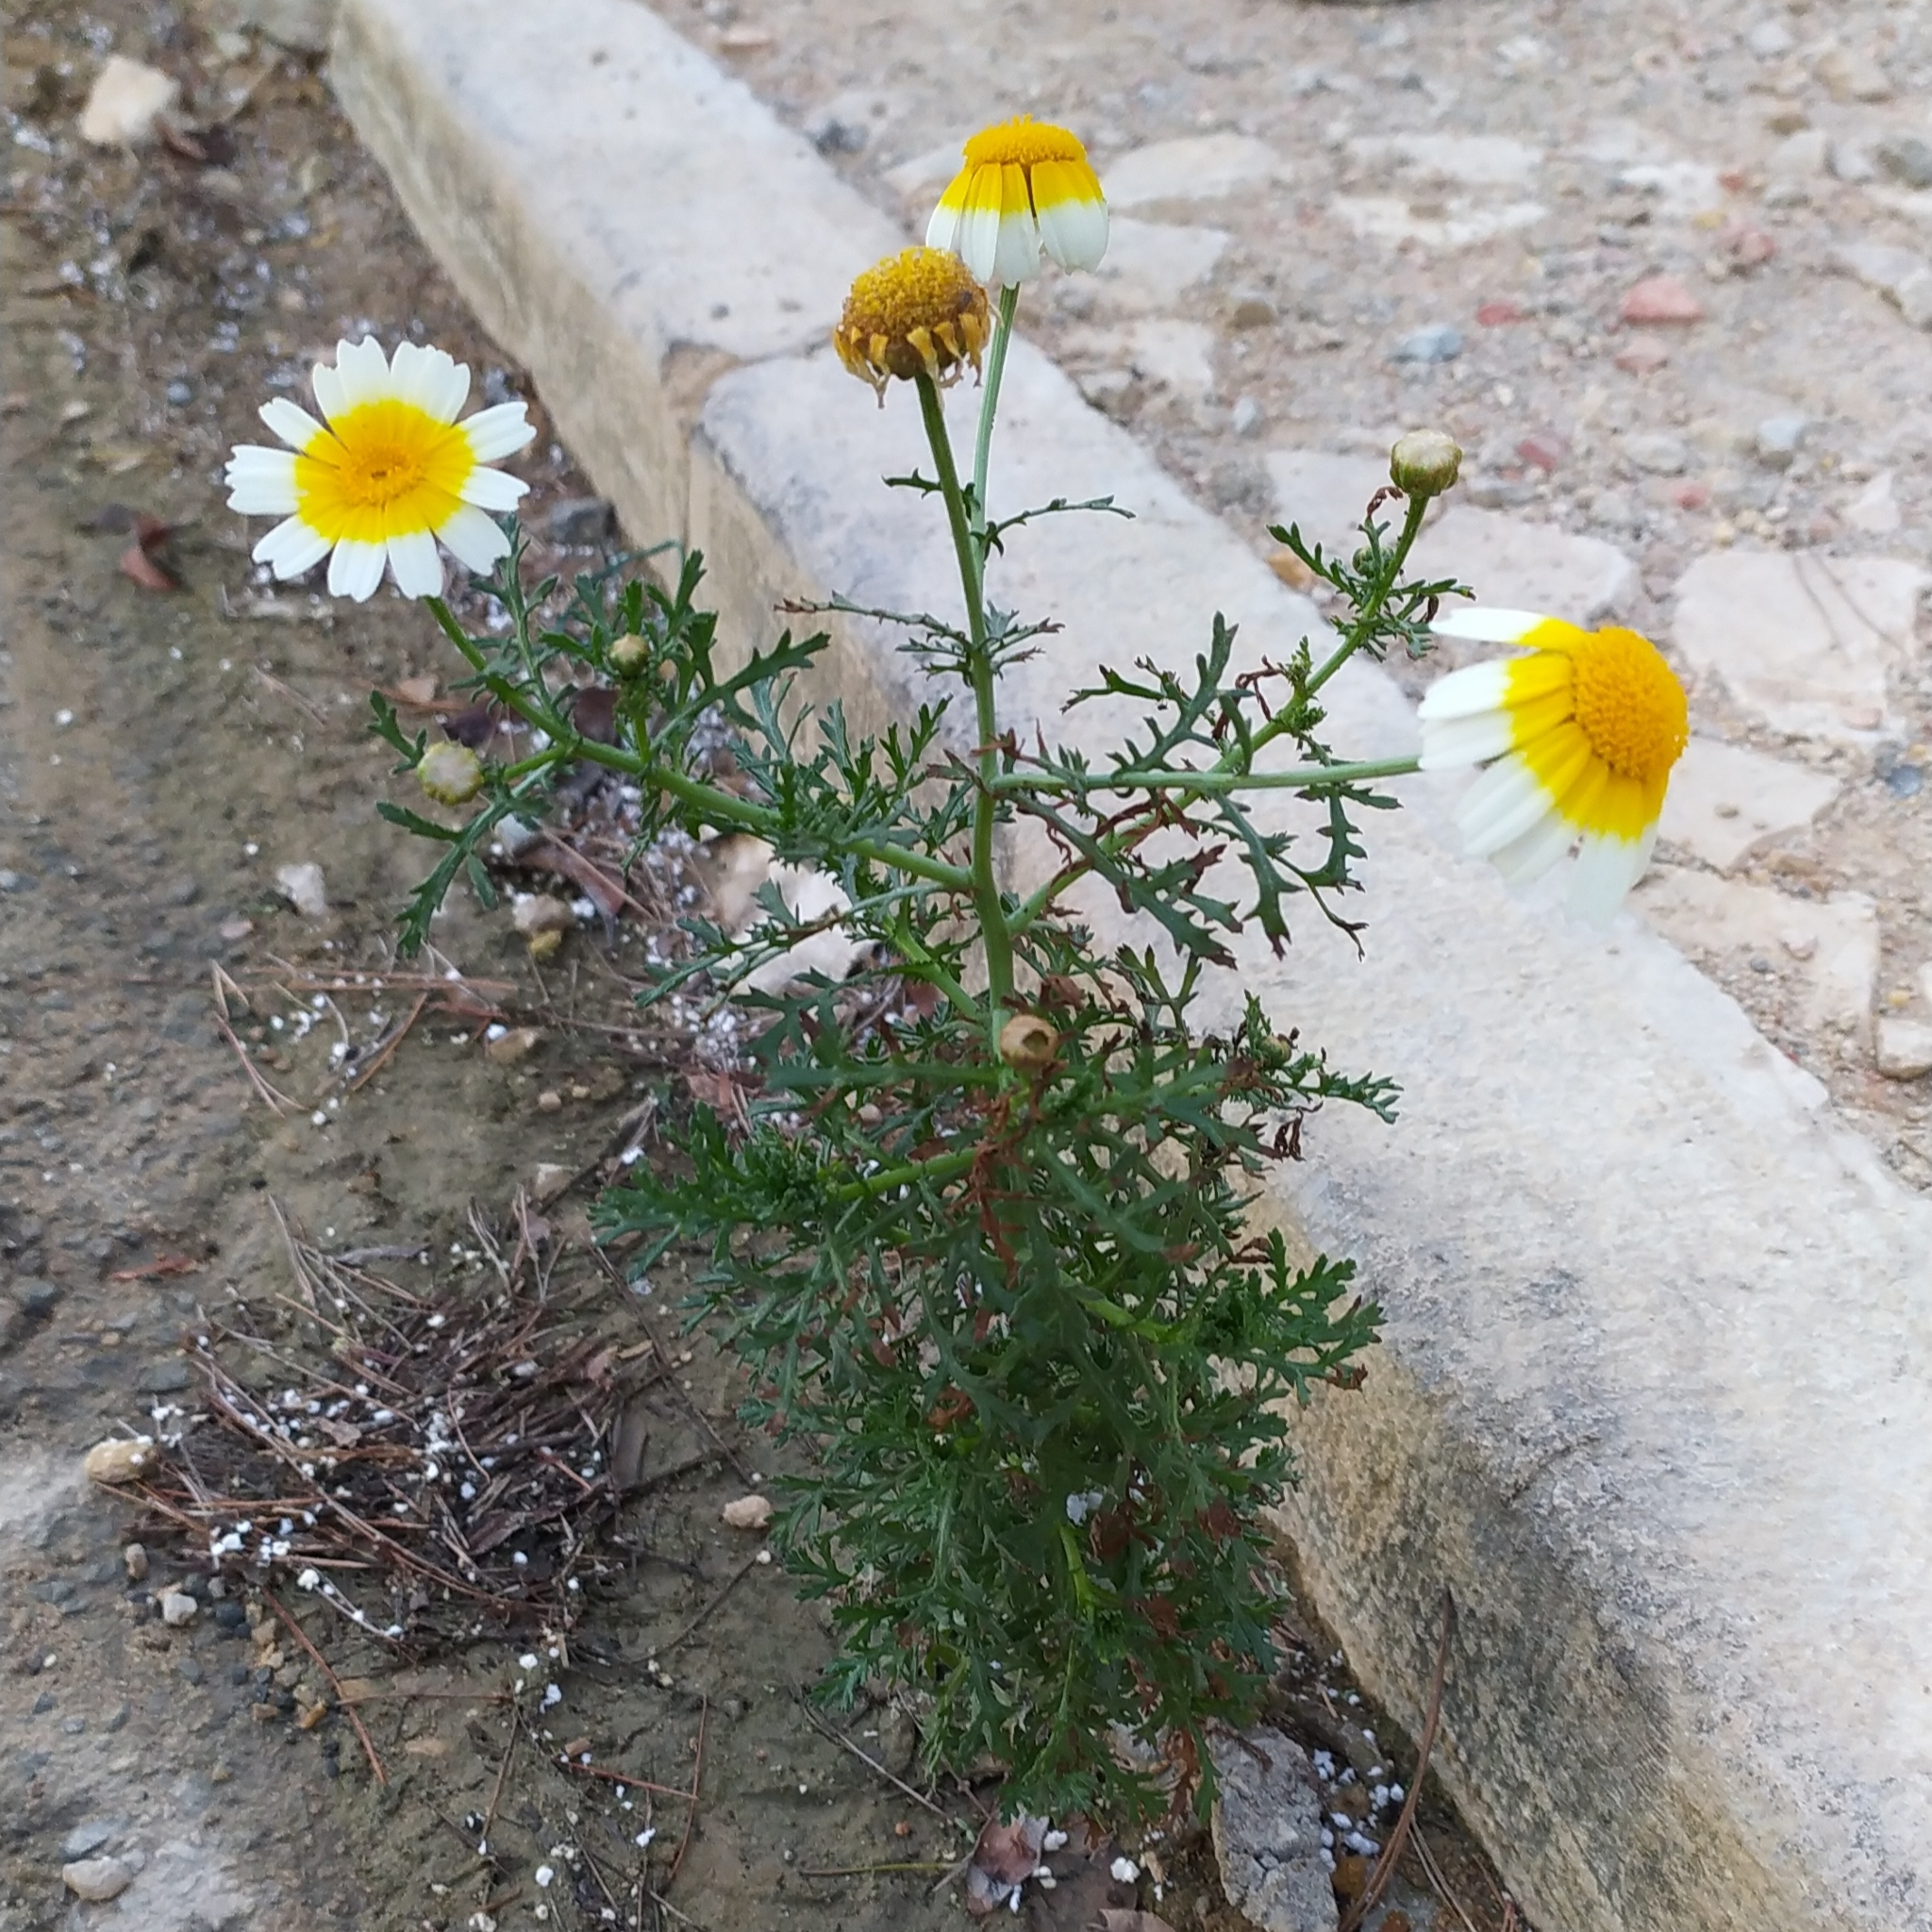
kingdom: Plantae
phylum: Tracheophyta
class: Magnoliopsida
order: Asterales
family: Asteraceae
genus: Glebionis
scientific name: Glebionis coronaria
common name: Crowndaisy
